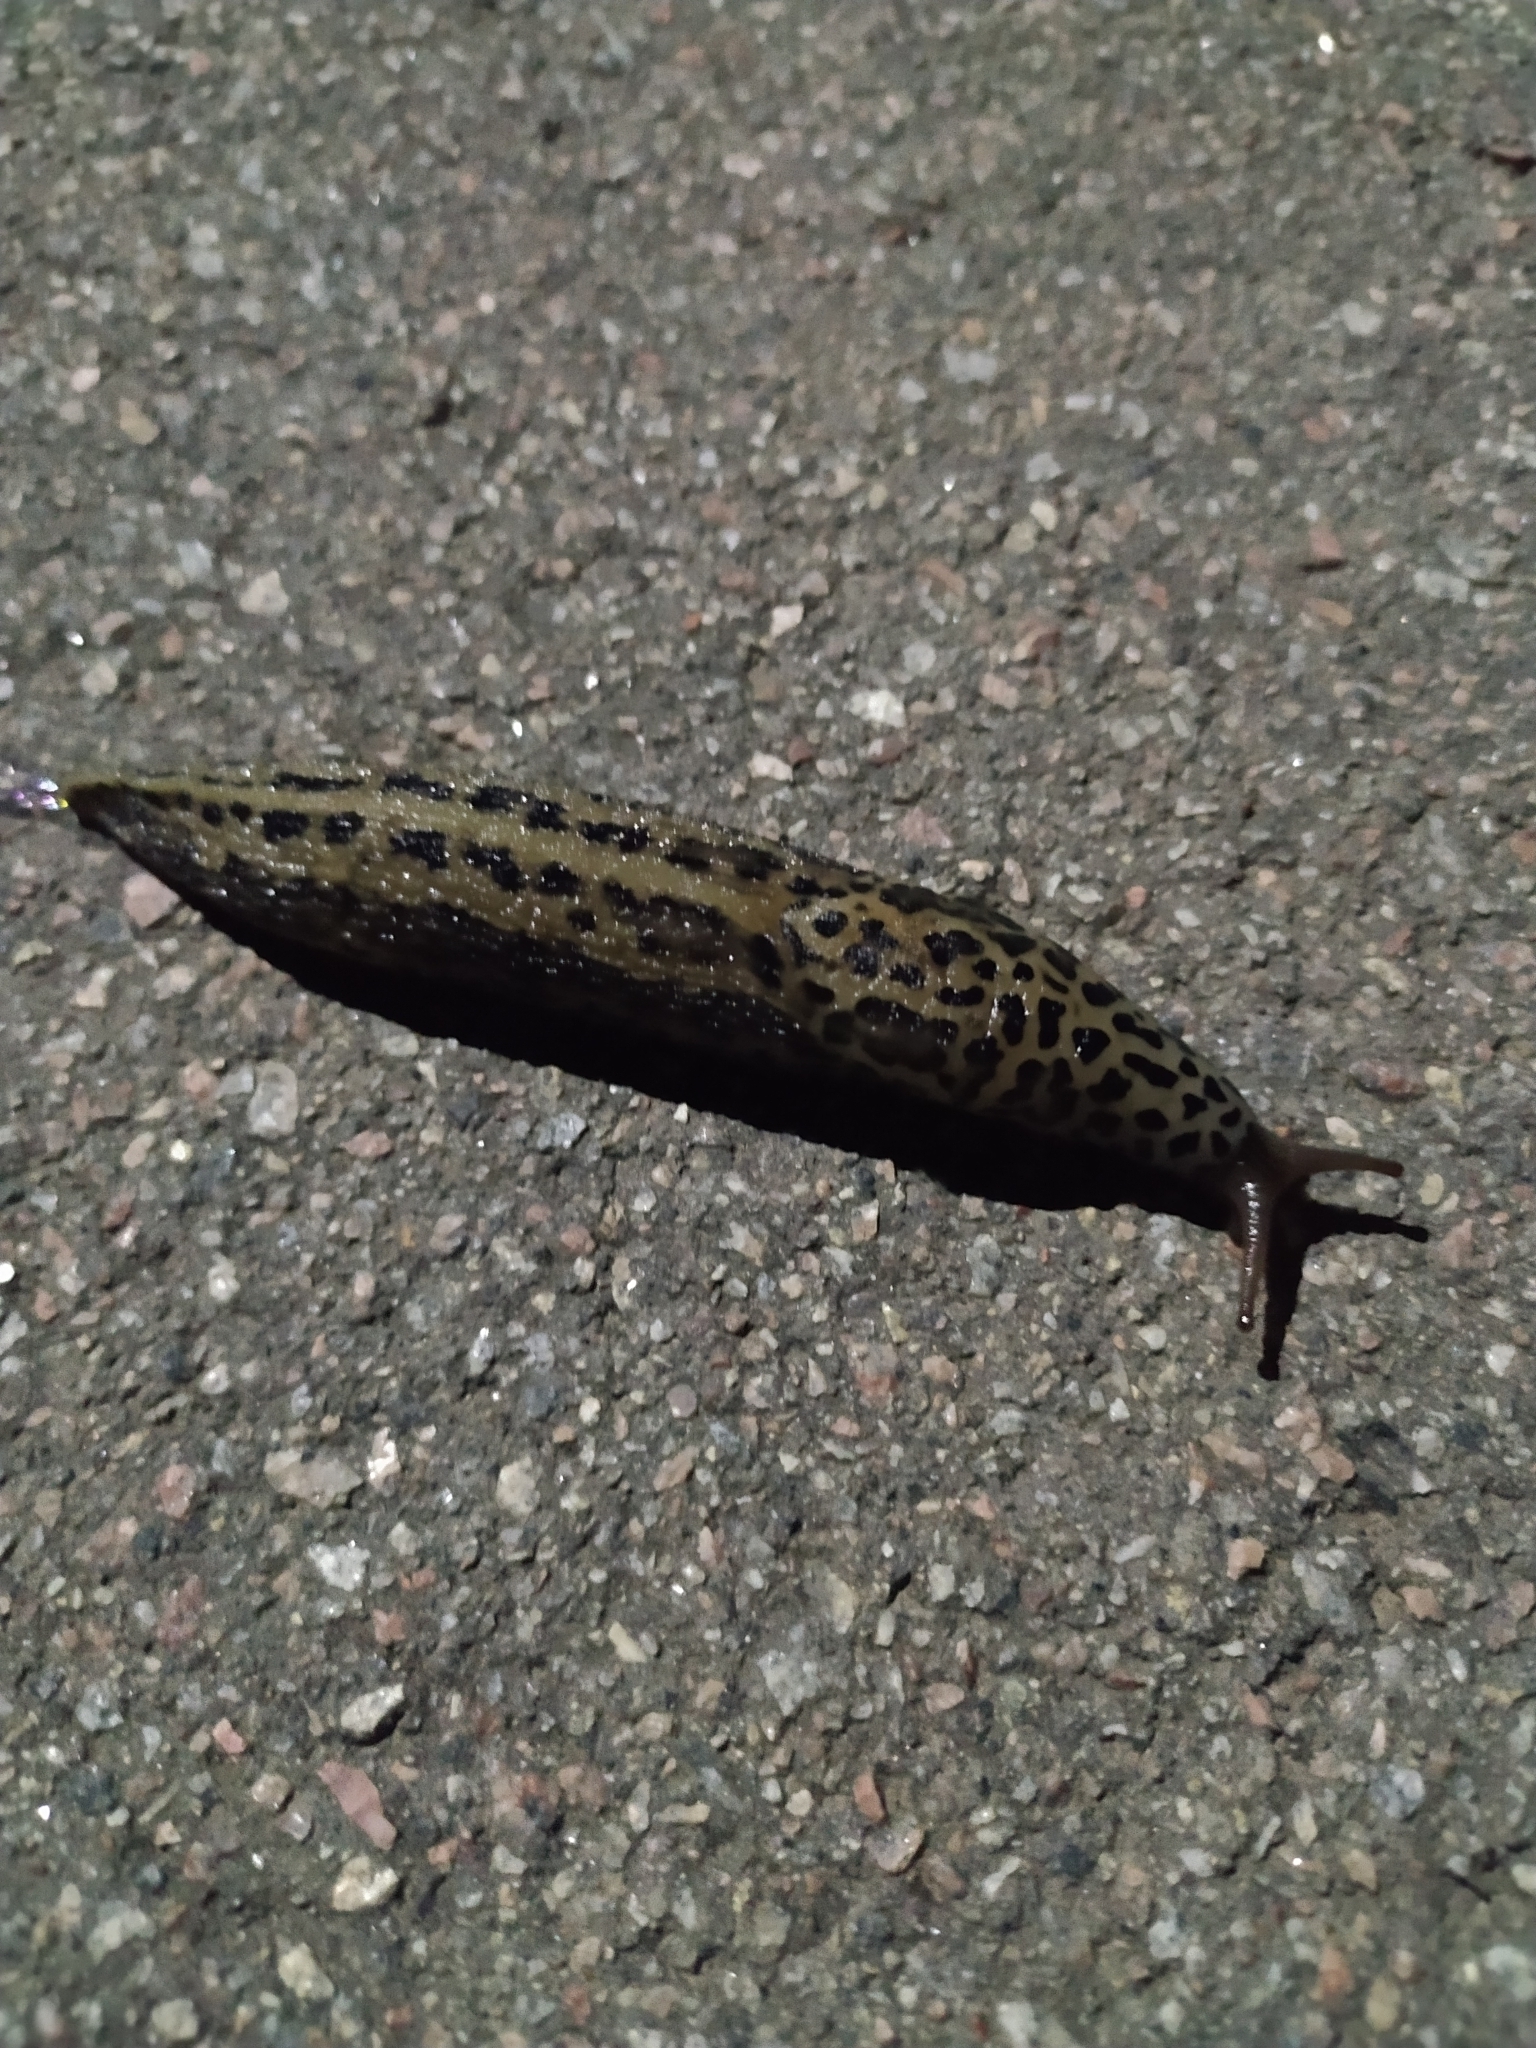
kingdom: Animalia
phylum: Mollusca
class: Gastropoda
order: Stylommatophora
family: Limacidae
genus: Limax
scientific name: Limax maximus
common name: Great grey slug
